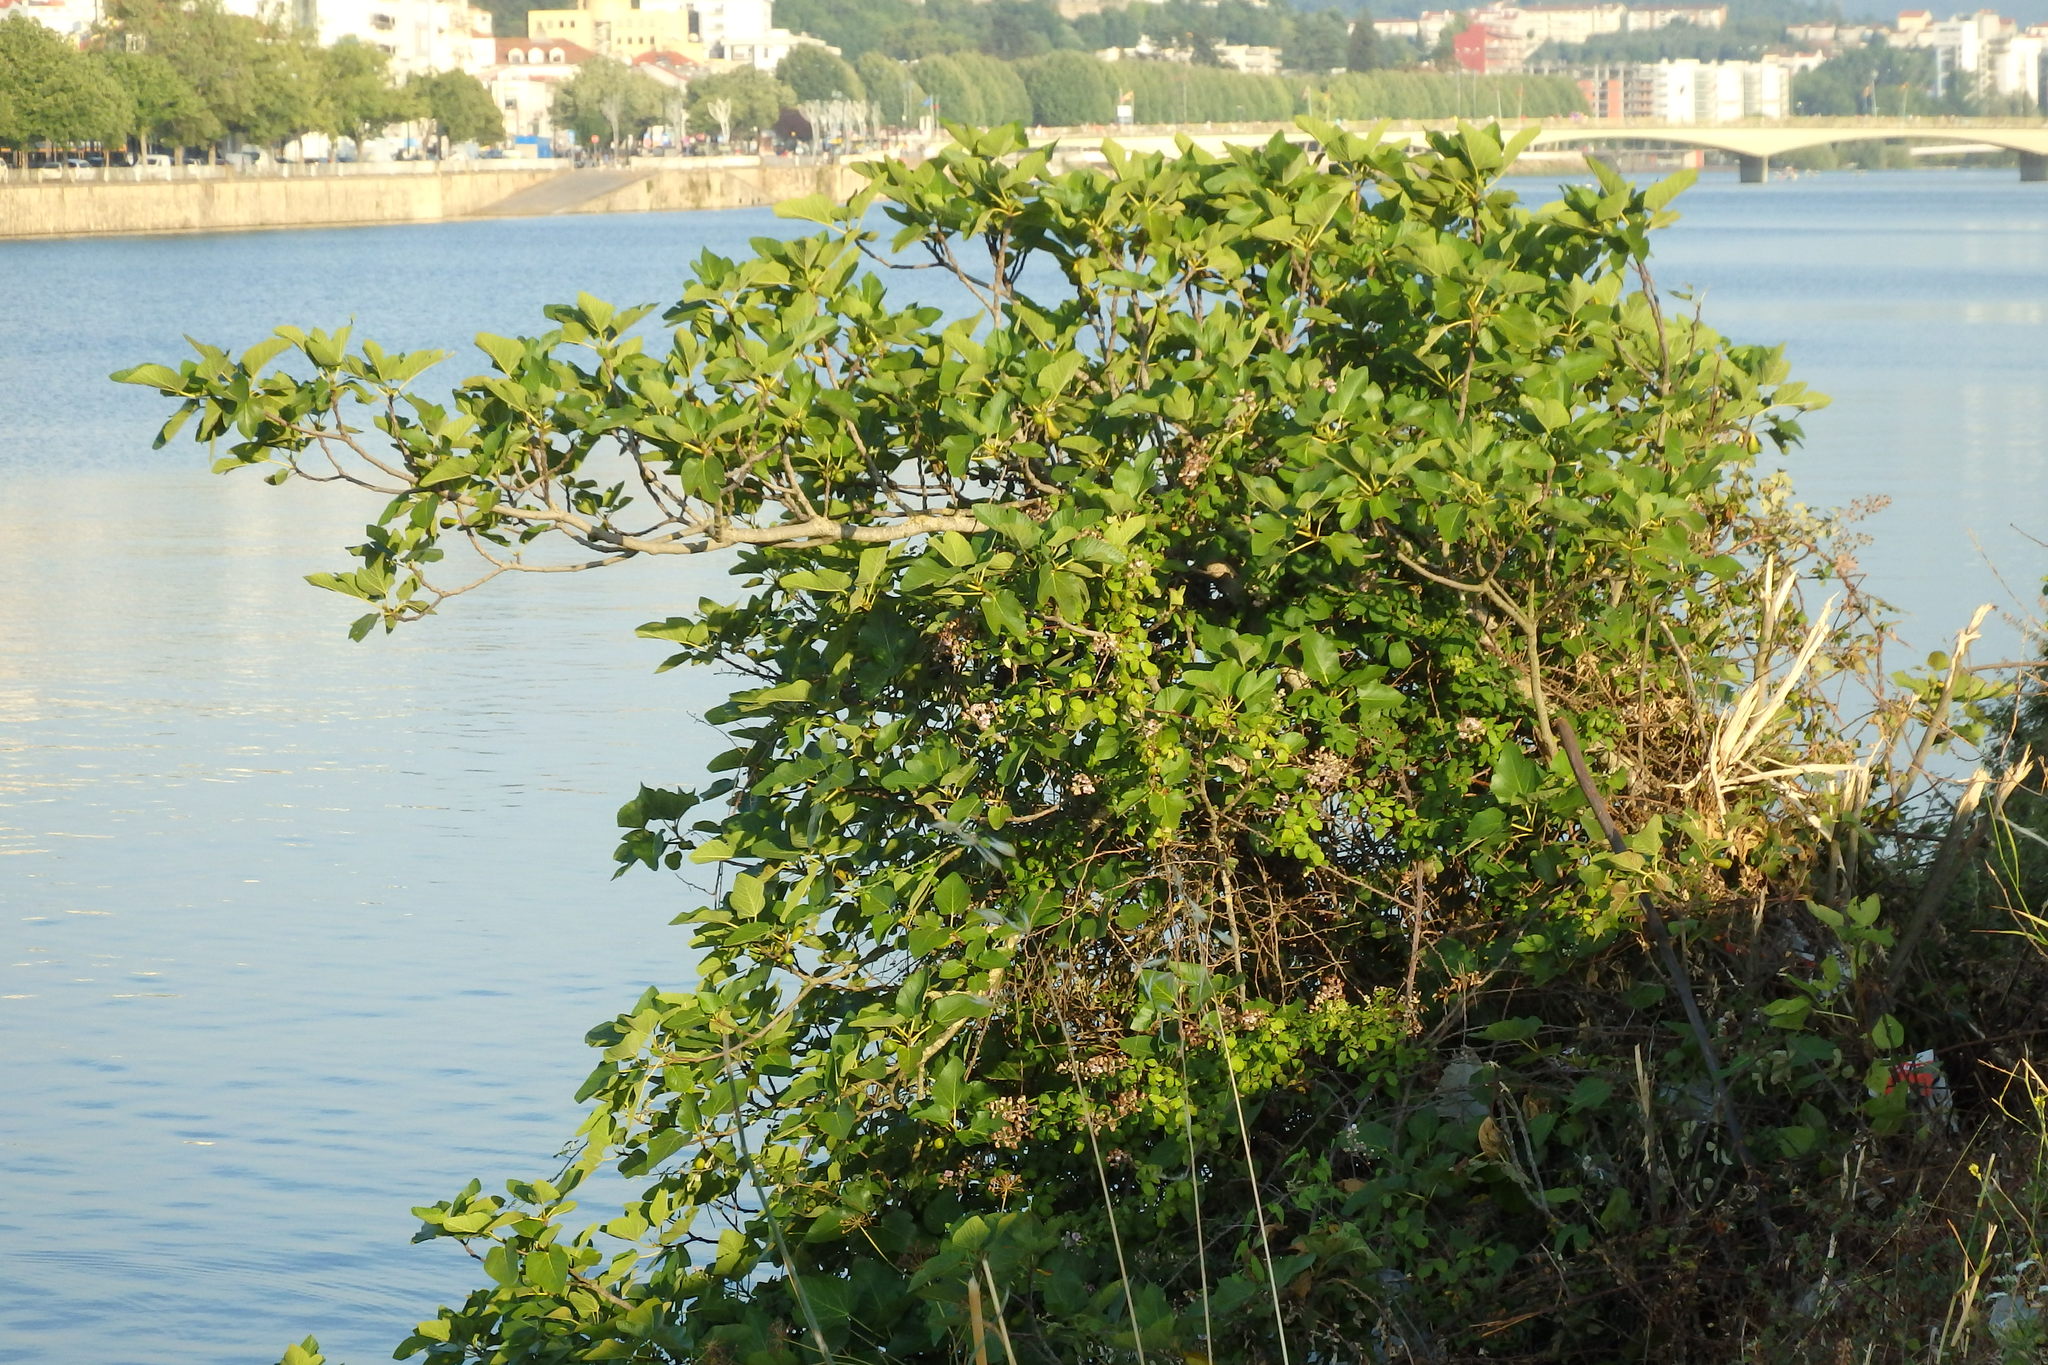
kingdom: Plantae
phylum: Tracheophyta
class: Magnoliopsida
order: Rosales
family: Moraceae
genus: Ficus
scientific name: Ficus carica
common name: Fig
